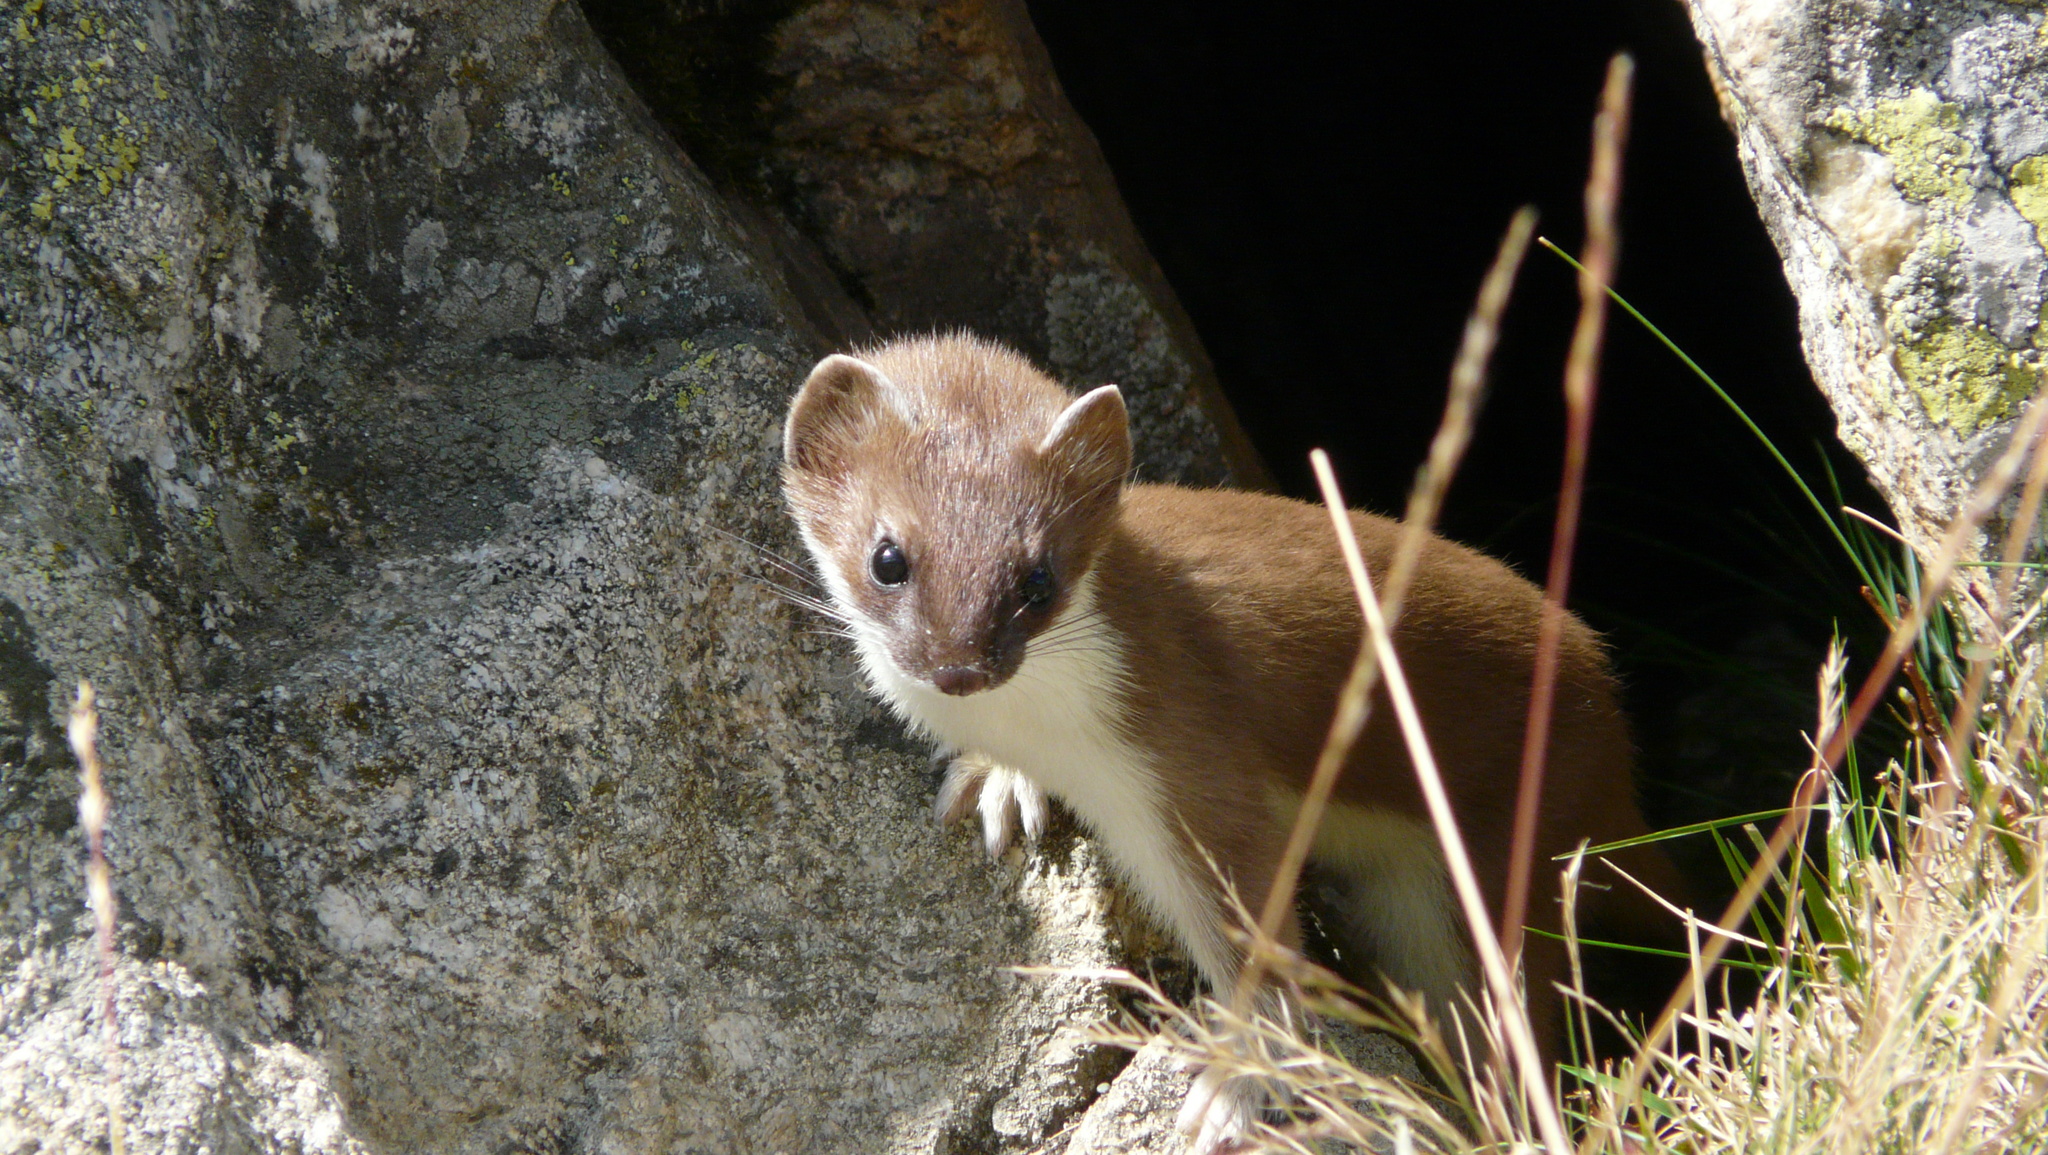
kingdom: Animalia
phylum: Chordata
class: Mammalia
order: Carnivora
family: Mustelidae
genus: Mustela
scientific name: Mustela erminea
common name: Stoat
